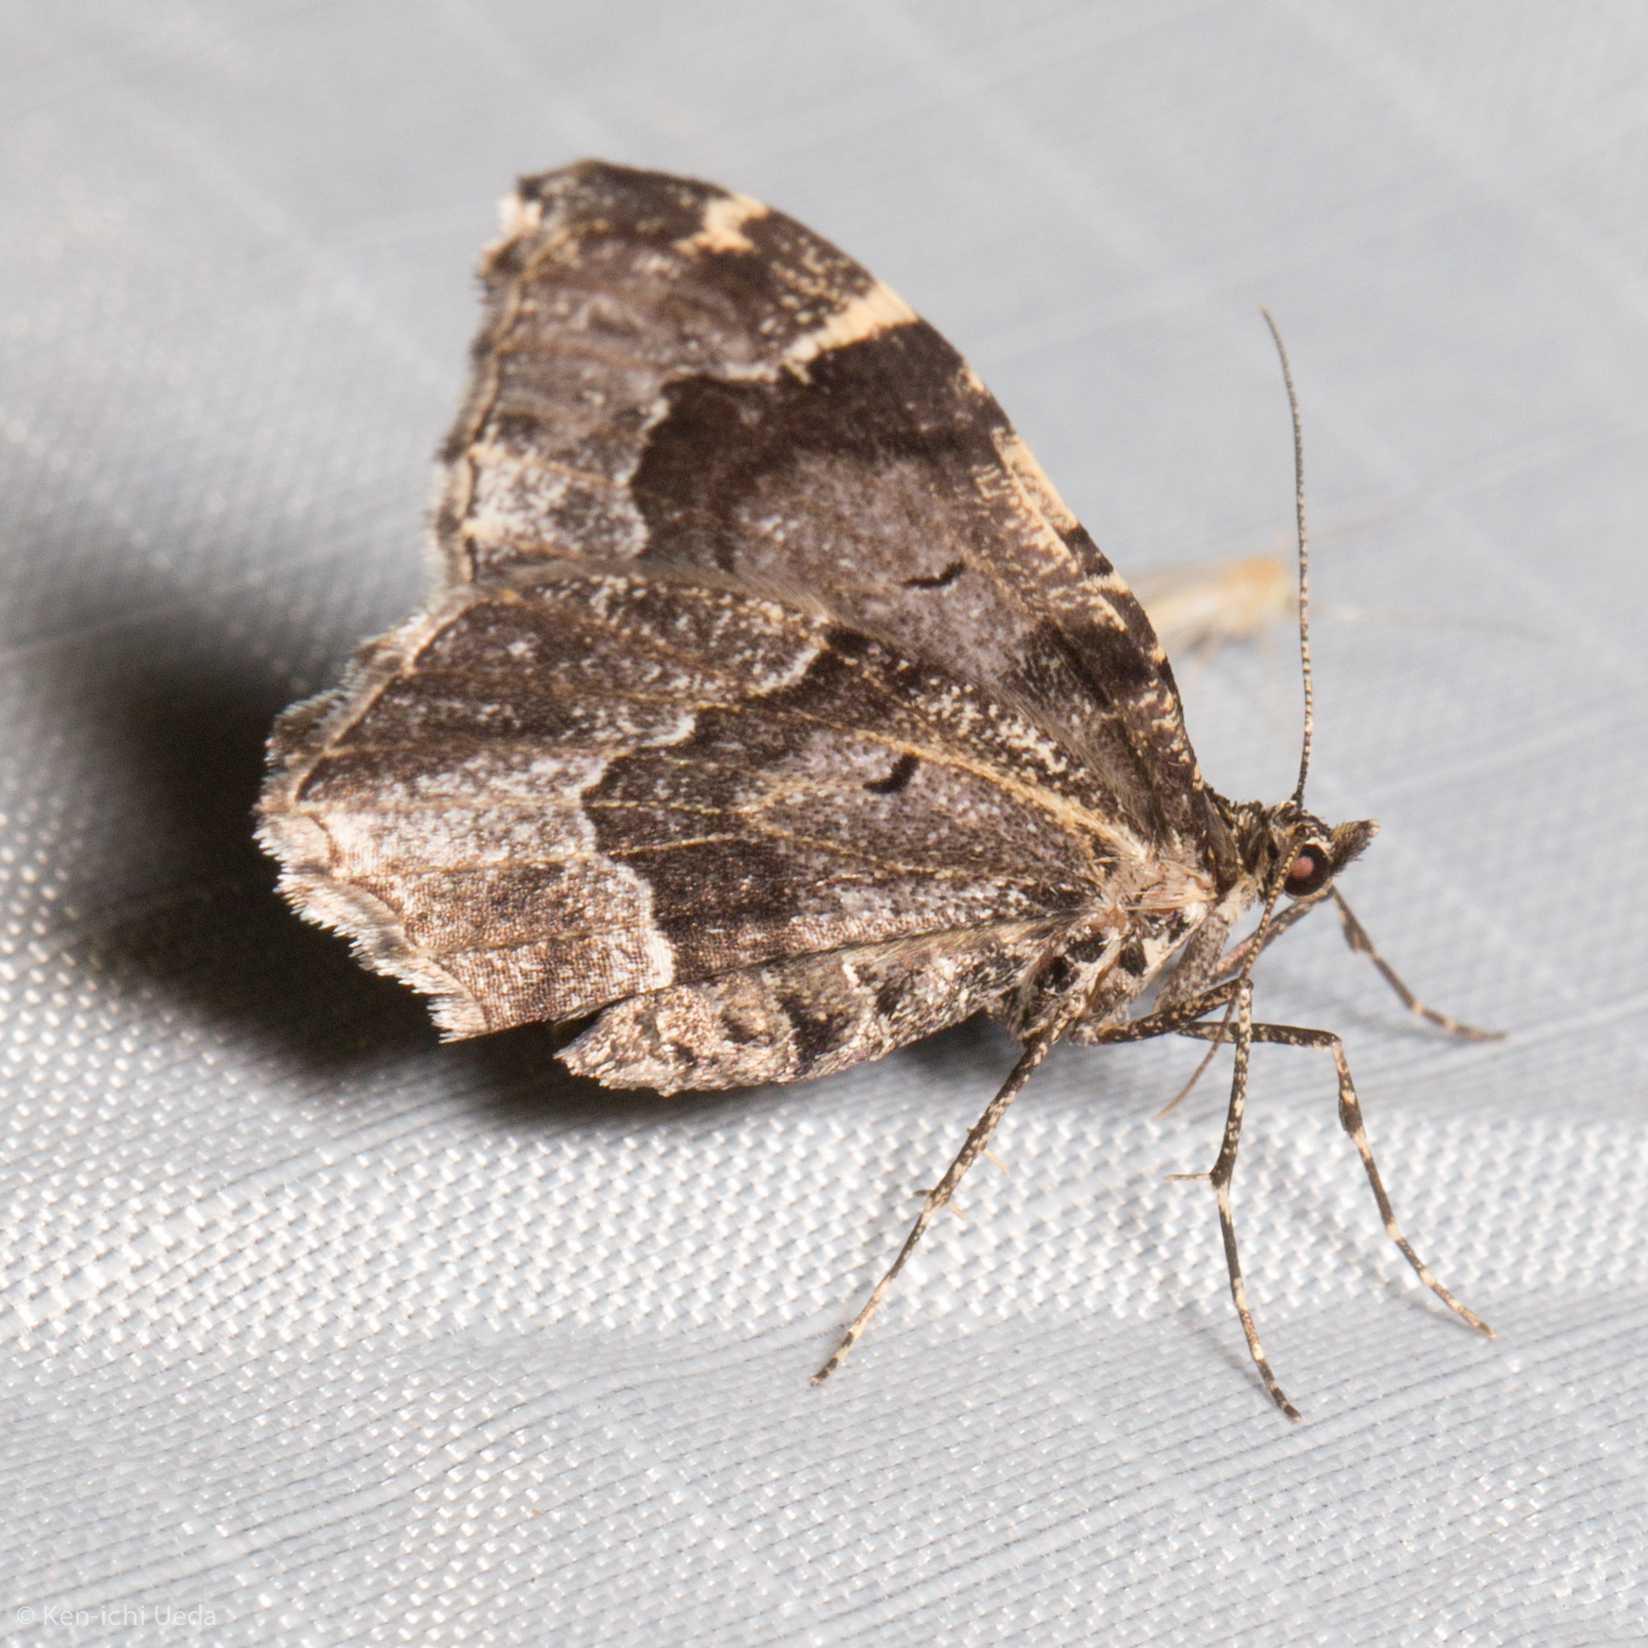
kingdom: Animalia
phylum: Arthropoda
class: Insecta
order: Lepidoptera
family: Geometridae
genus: Ceratodalia
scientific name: Ceratodalia gueneata
